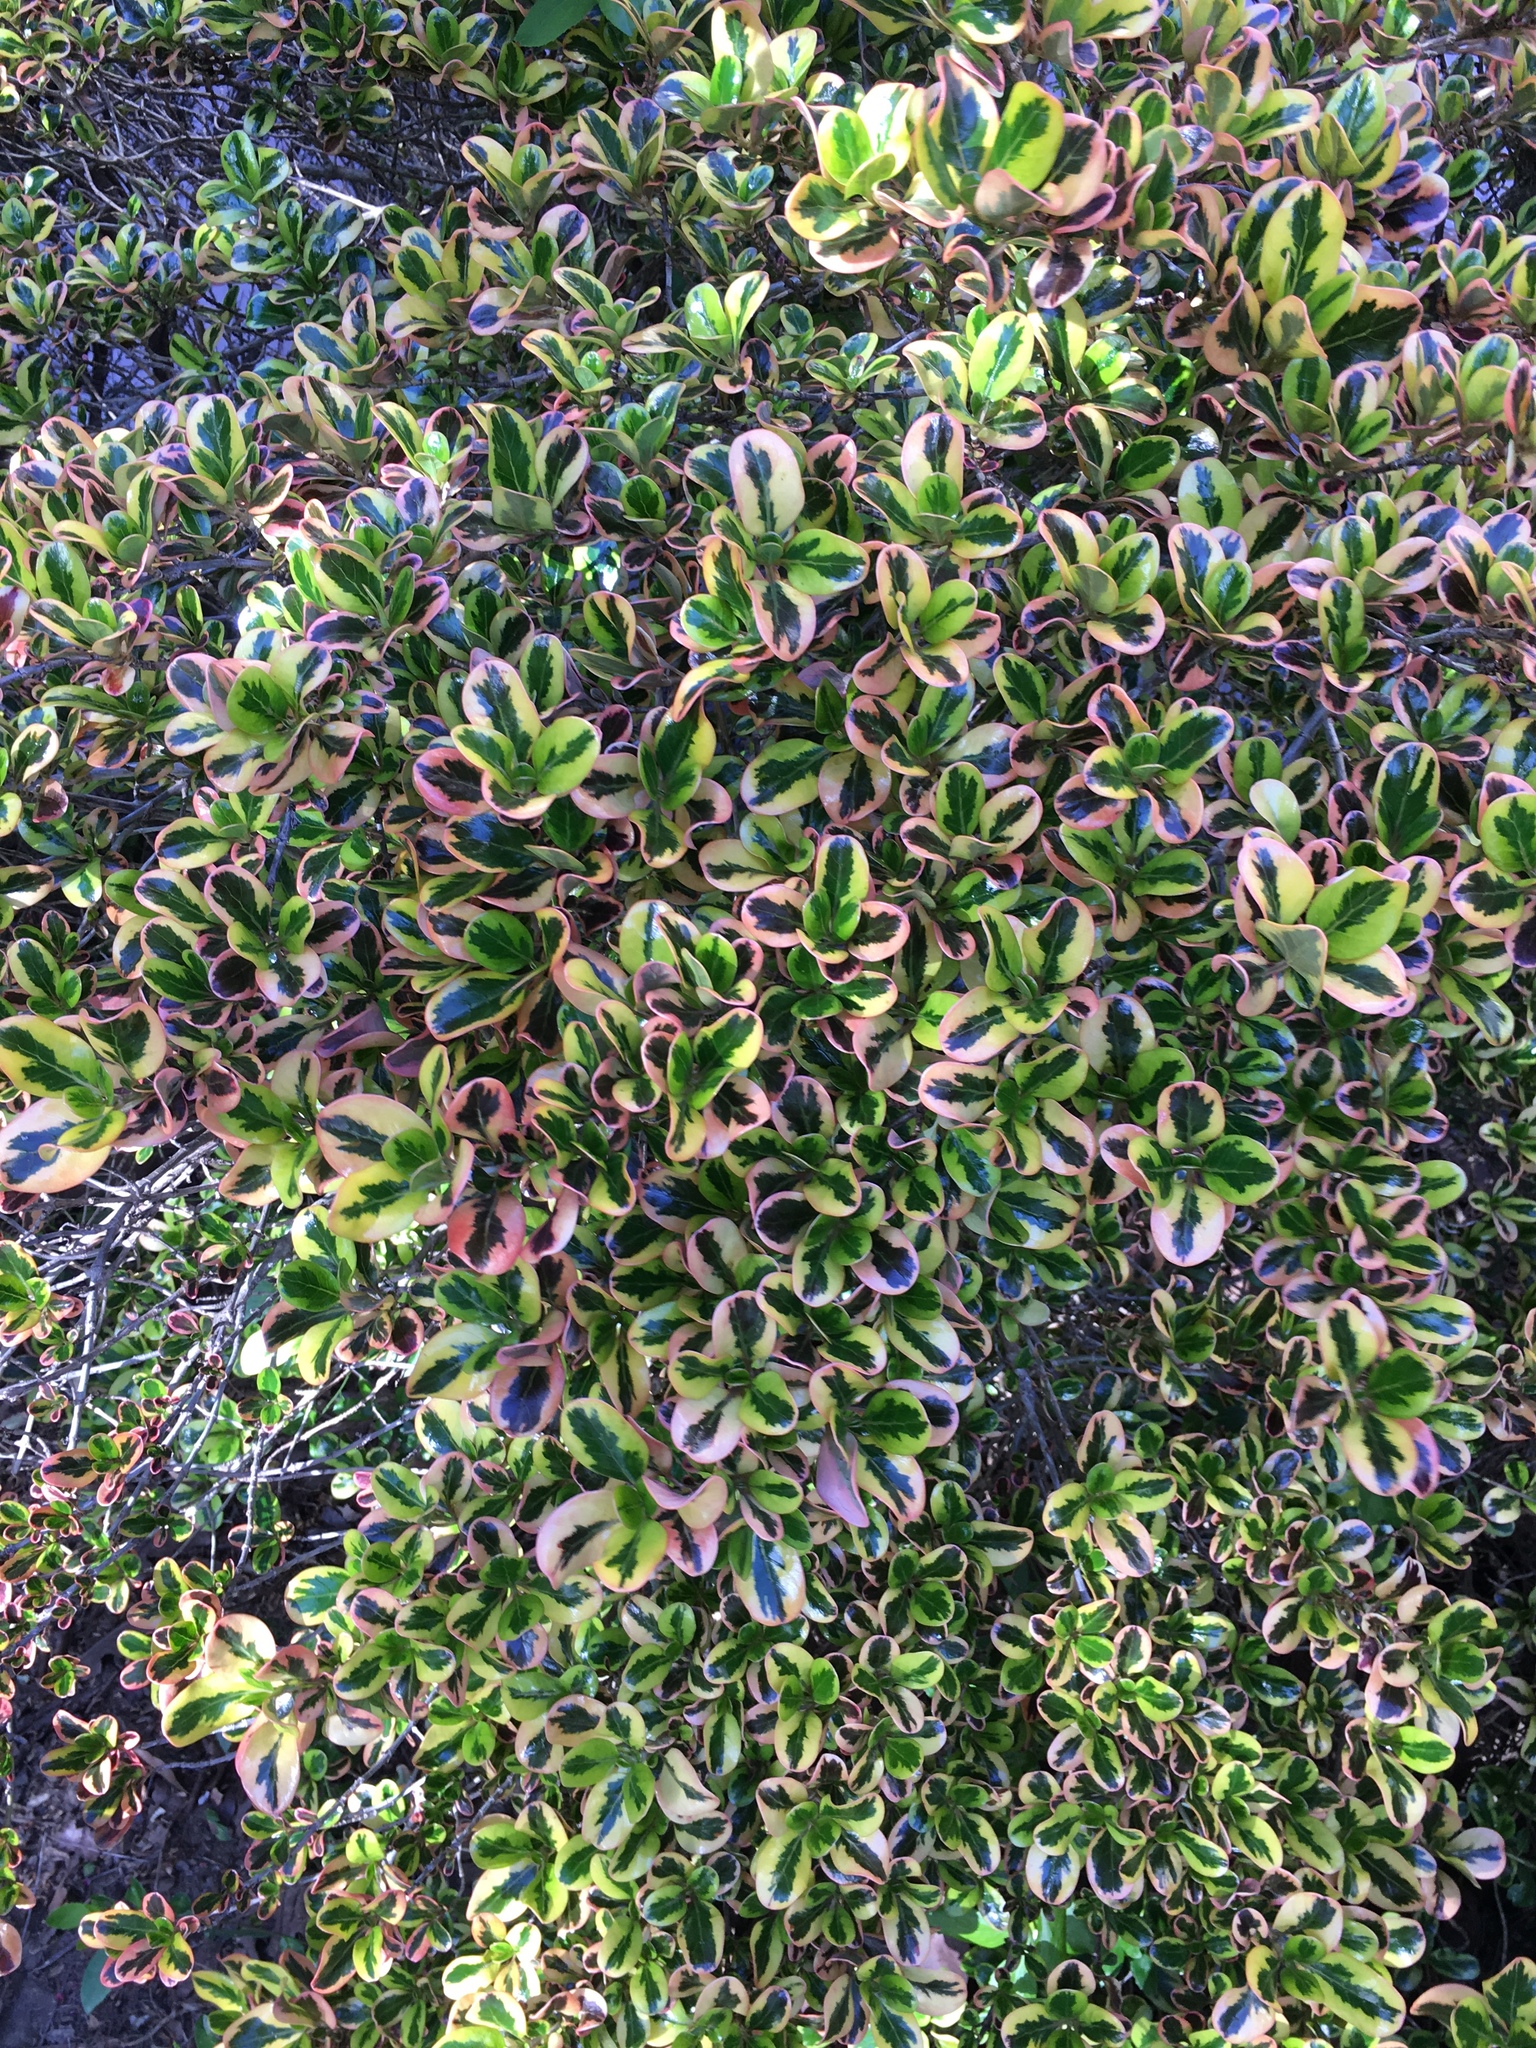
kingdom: Plantae
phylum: Tracheophyta
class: Magnoliopsida
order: Celastrales
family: Celastraceae
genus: Euonymus
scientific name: Euonymus japonicus
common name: Japanese spindletree
